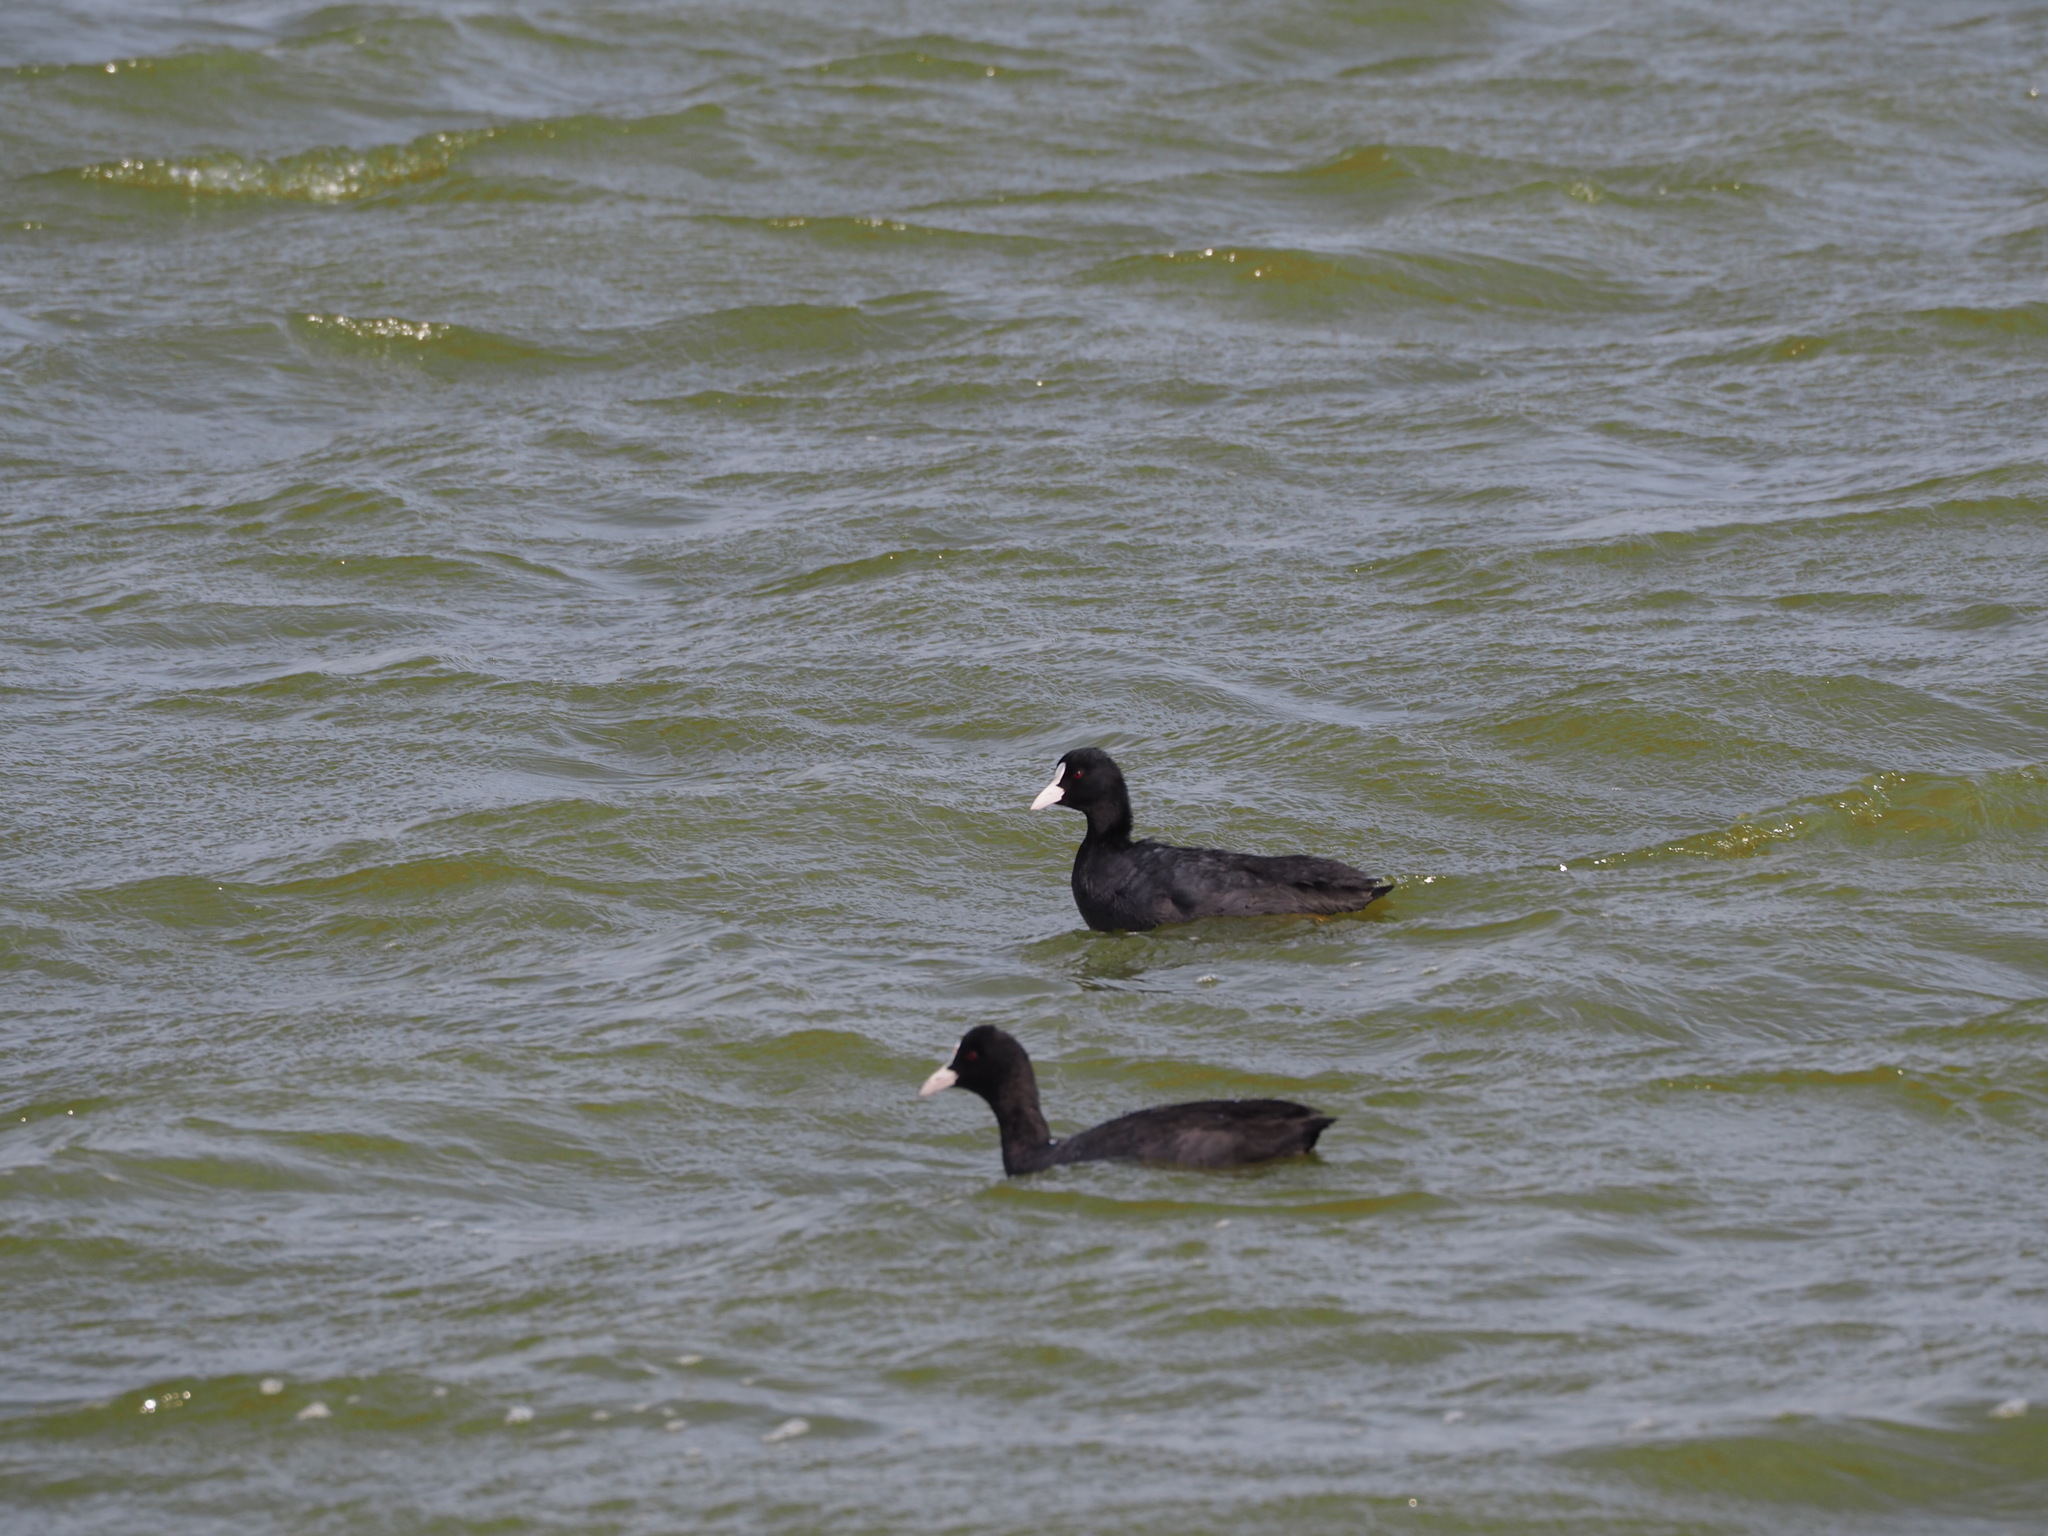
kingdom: Animalia
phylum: Chordata
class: Aves
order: Gruiformes
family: Rallidae
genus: Fulica
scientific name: Fulica atra
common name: Eurasian coot
